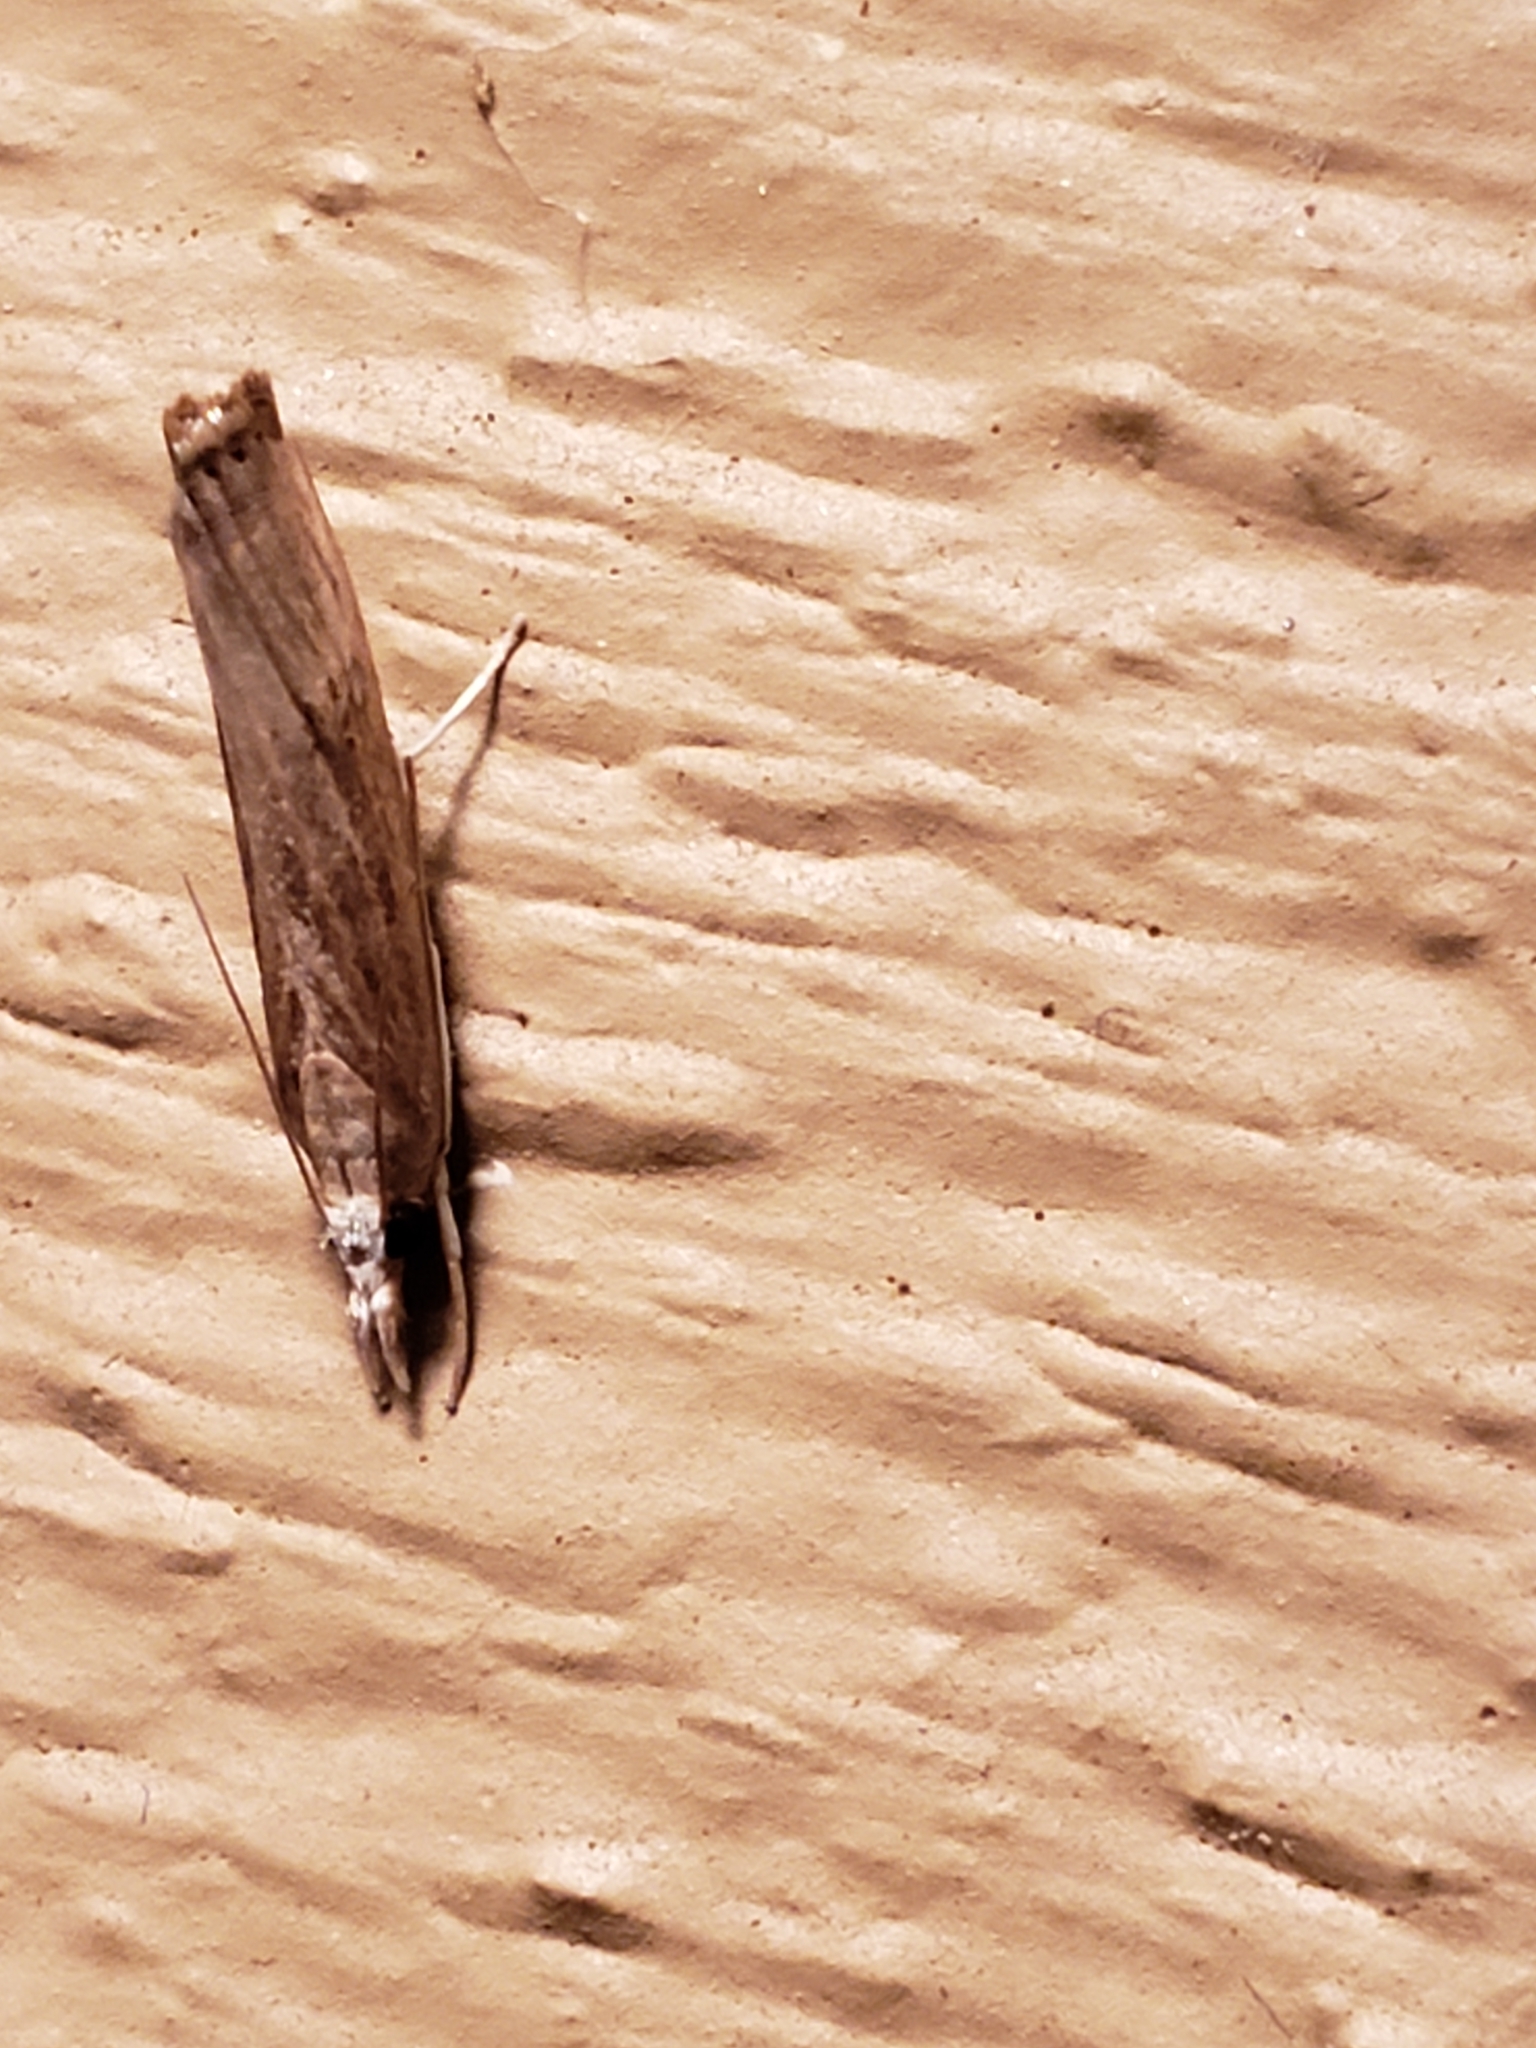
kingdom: Animalia
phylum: Arthropoda
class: Insecta
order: Lepidoptera
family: Crambidae
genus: Parapediasia
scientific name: Parapediasia teterellus
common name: Bluegrass webworm moth
